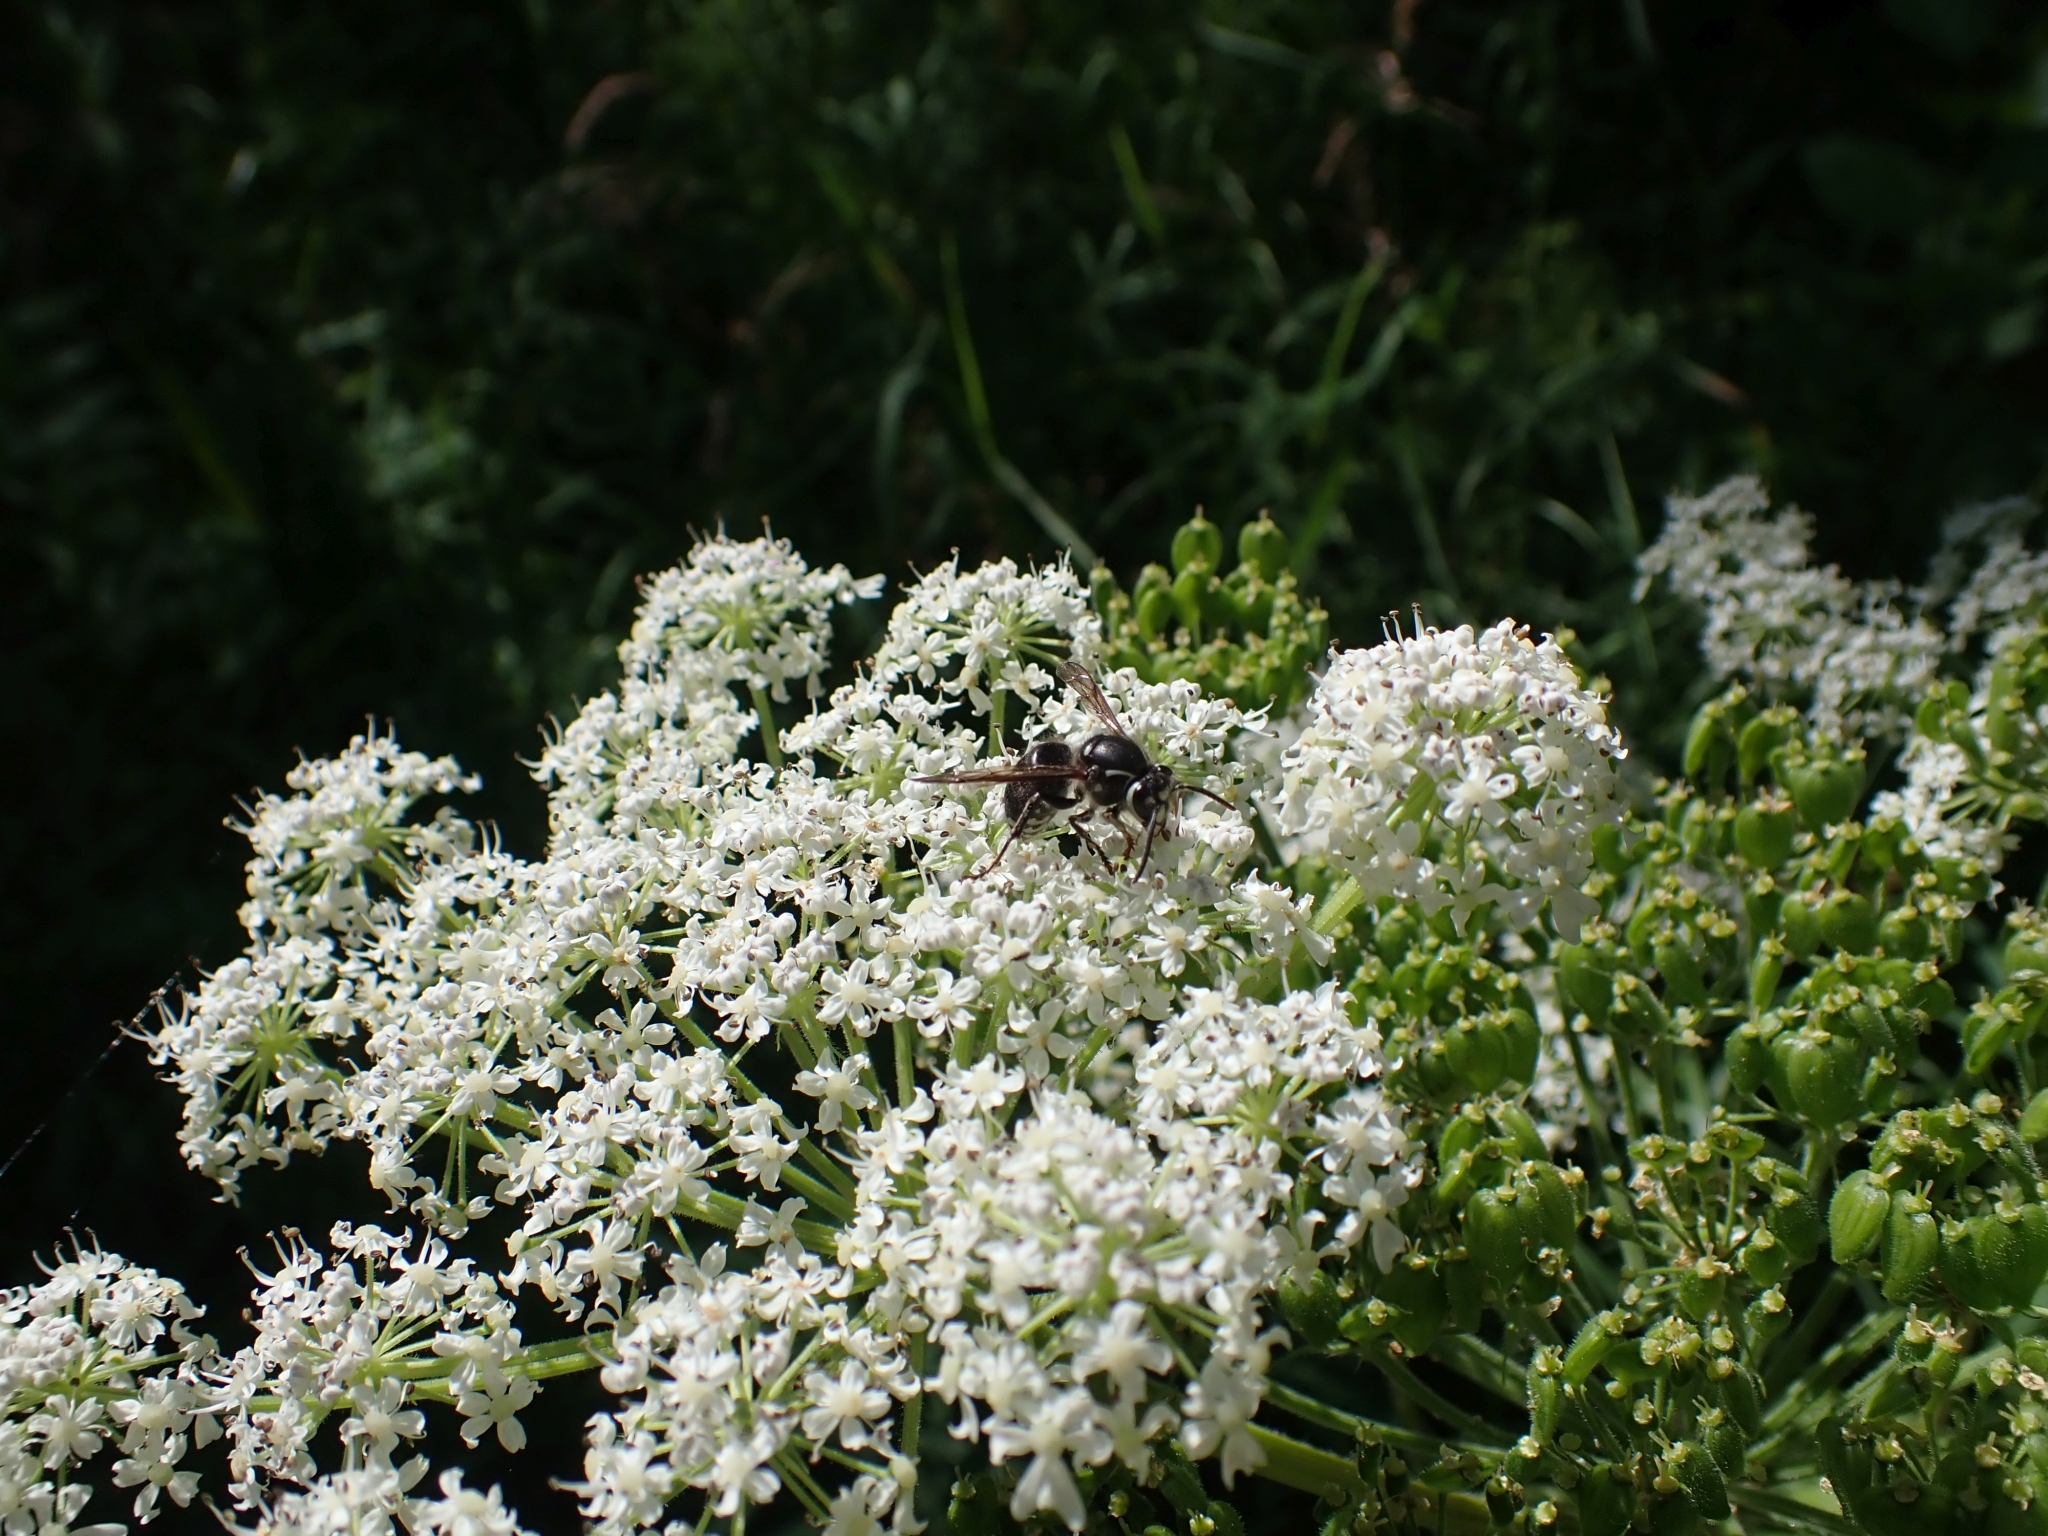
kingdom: Animalia
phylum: Arthropoda
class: Insecta
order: Hymenoptera
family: Vespidae
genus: Dolichovespula
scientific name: Dolichovespula maculata
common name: Bald-faced hornet
